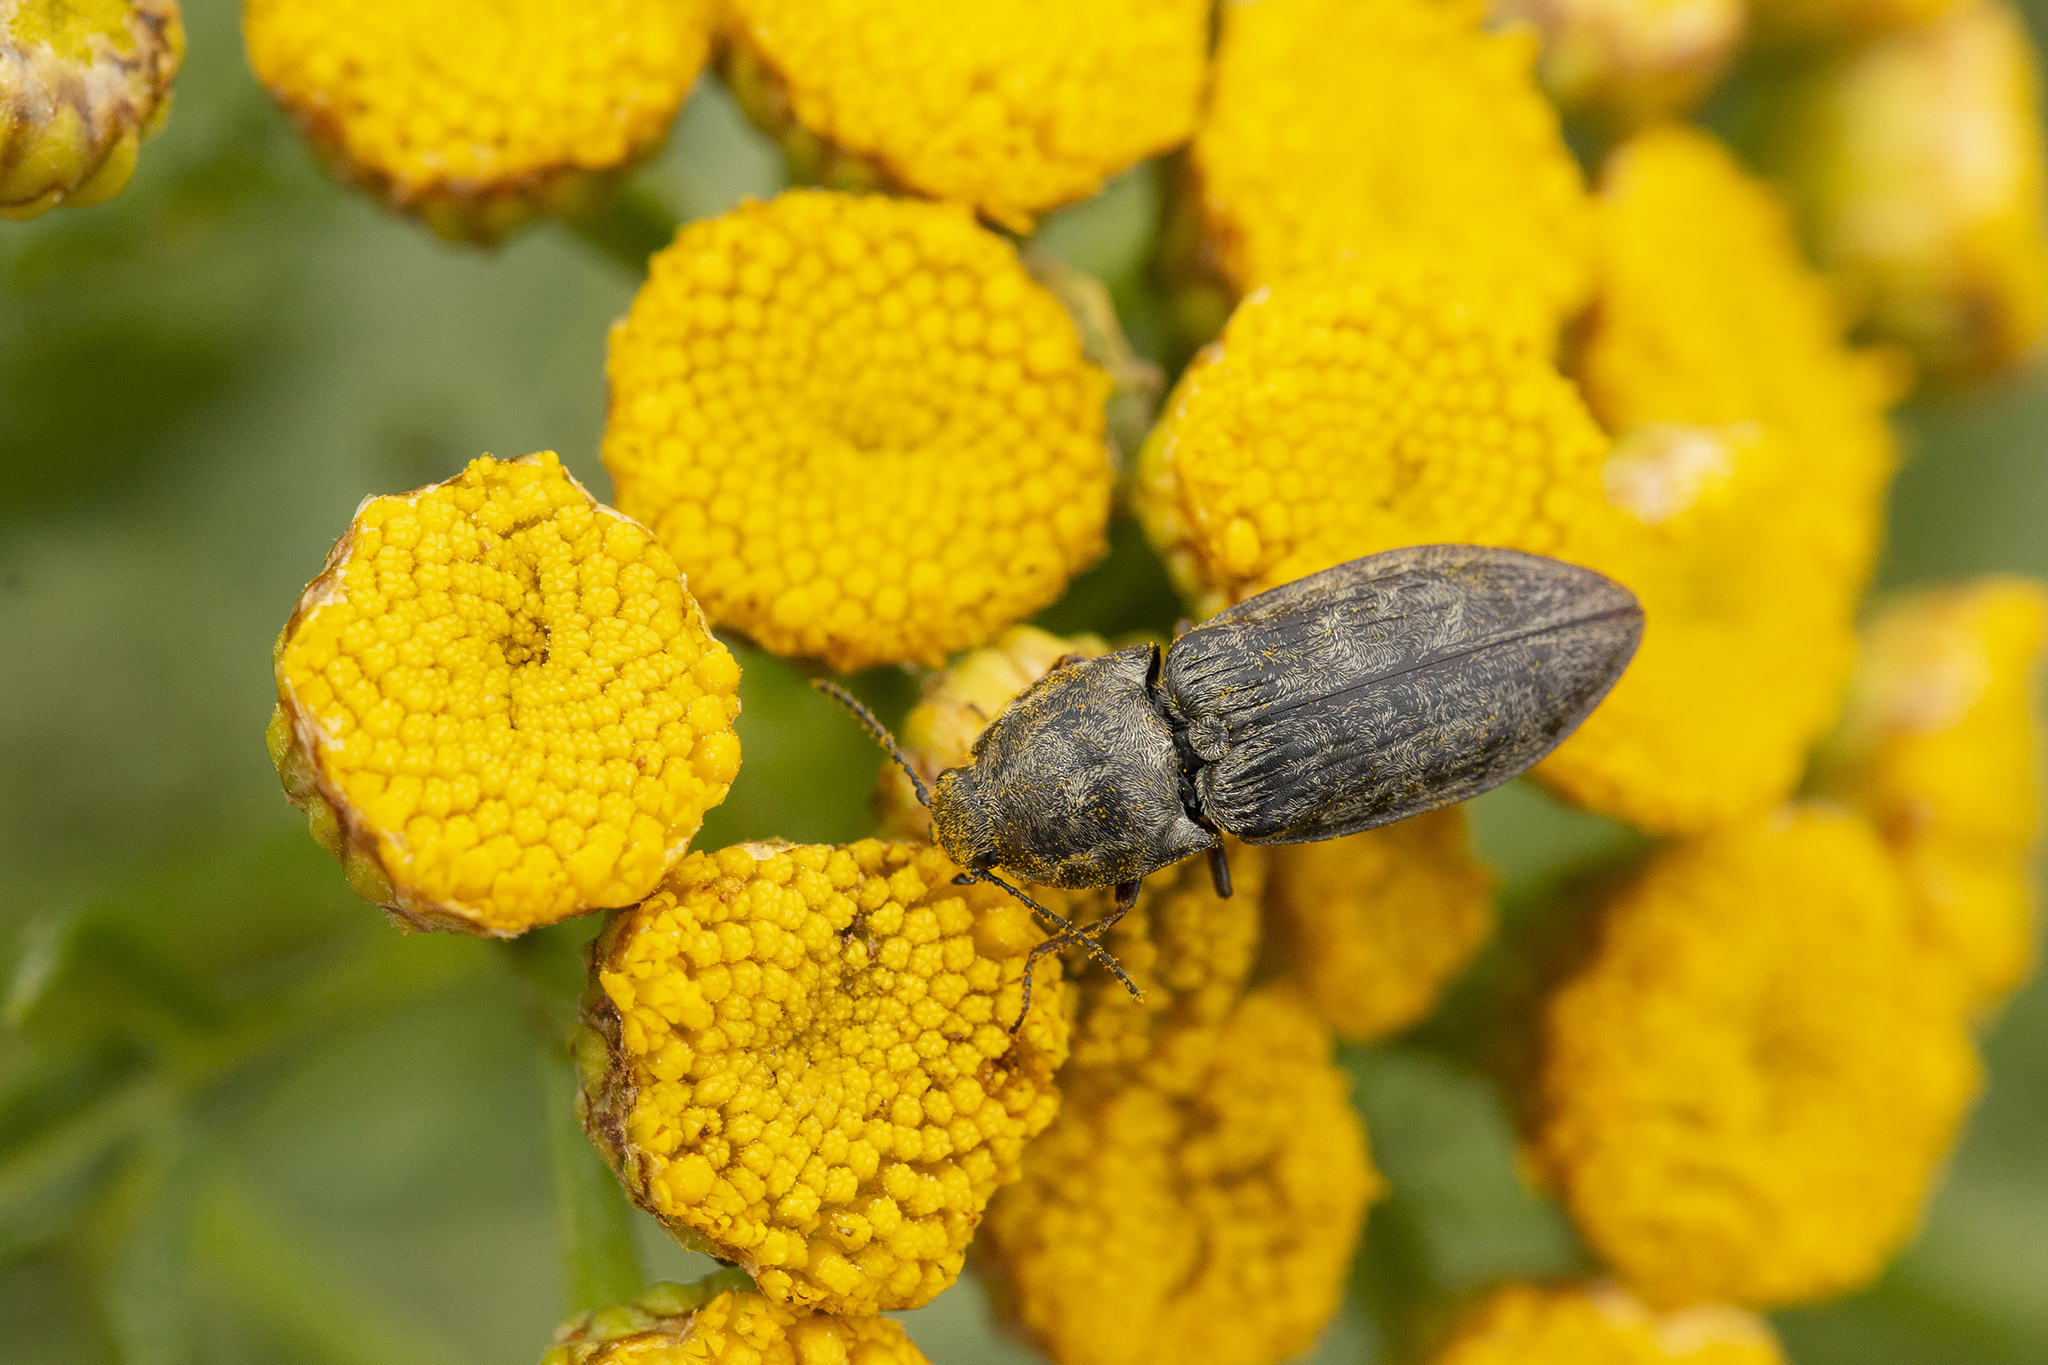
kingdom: Animalia
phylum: Arthropoda
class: Insecta
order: Coleoptera
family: Elateridae
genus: Agrypnus
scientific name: Agrypnus murinus
